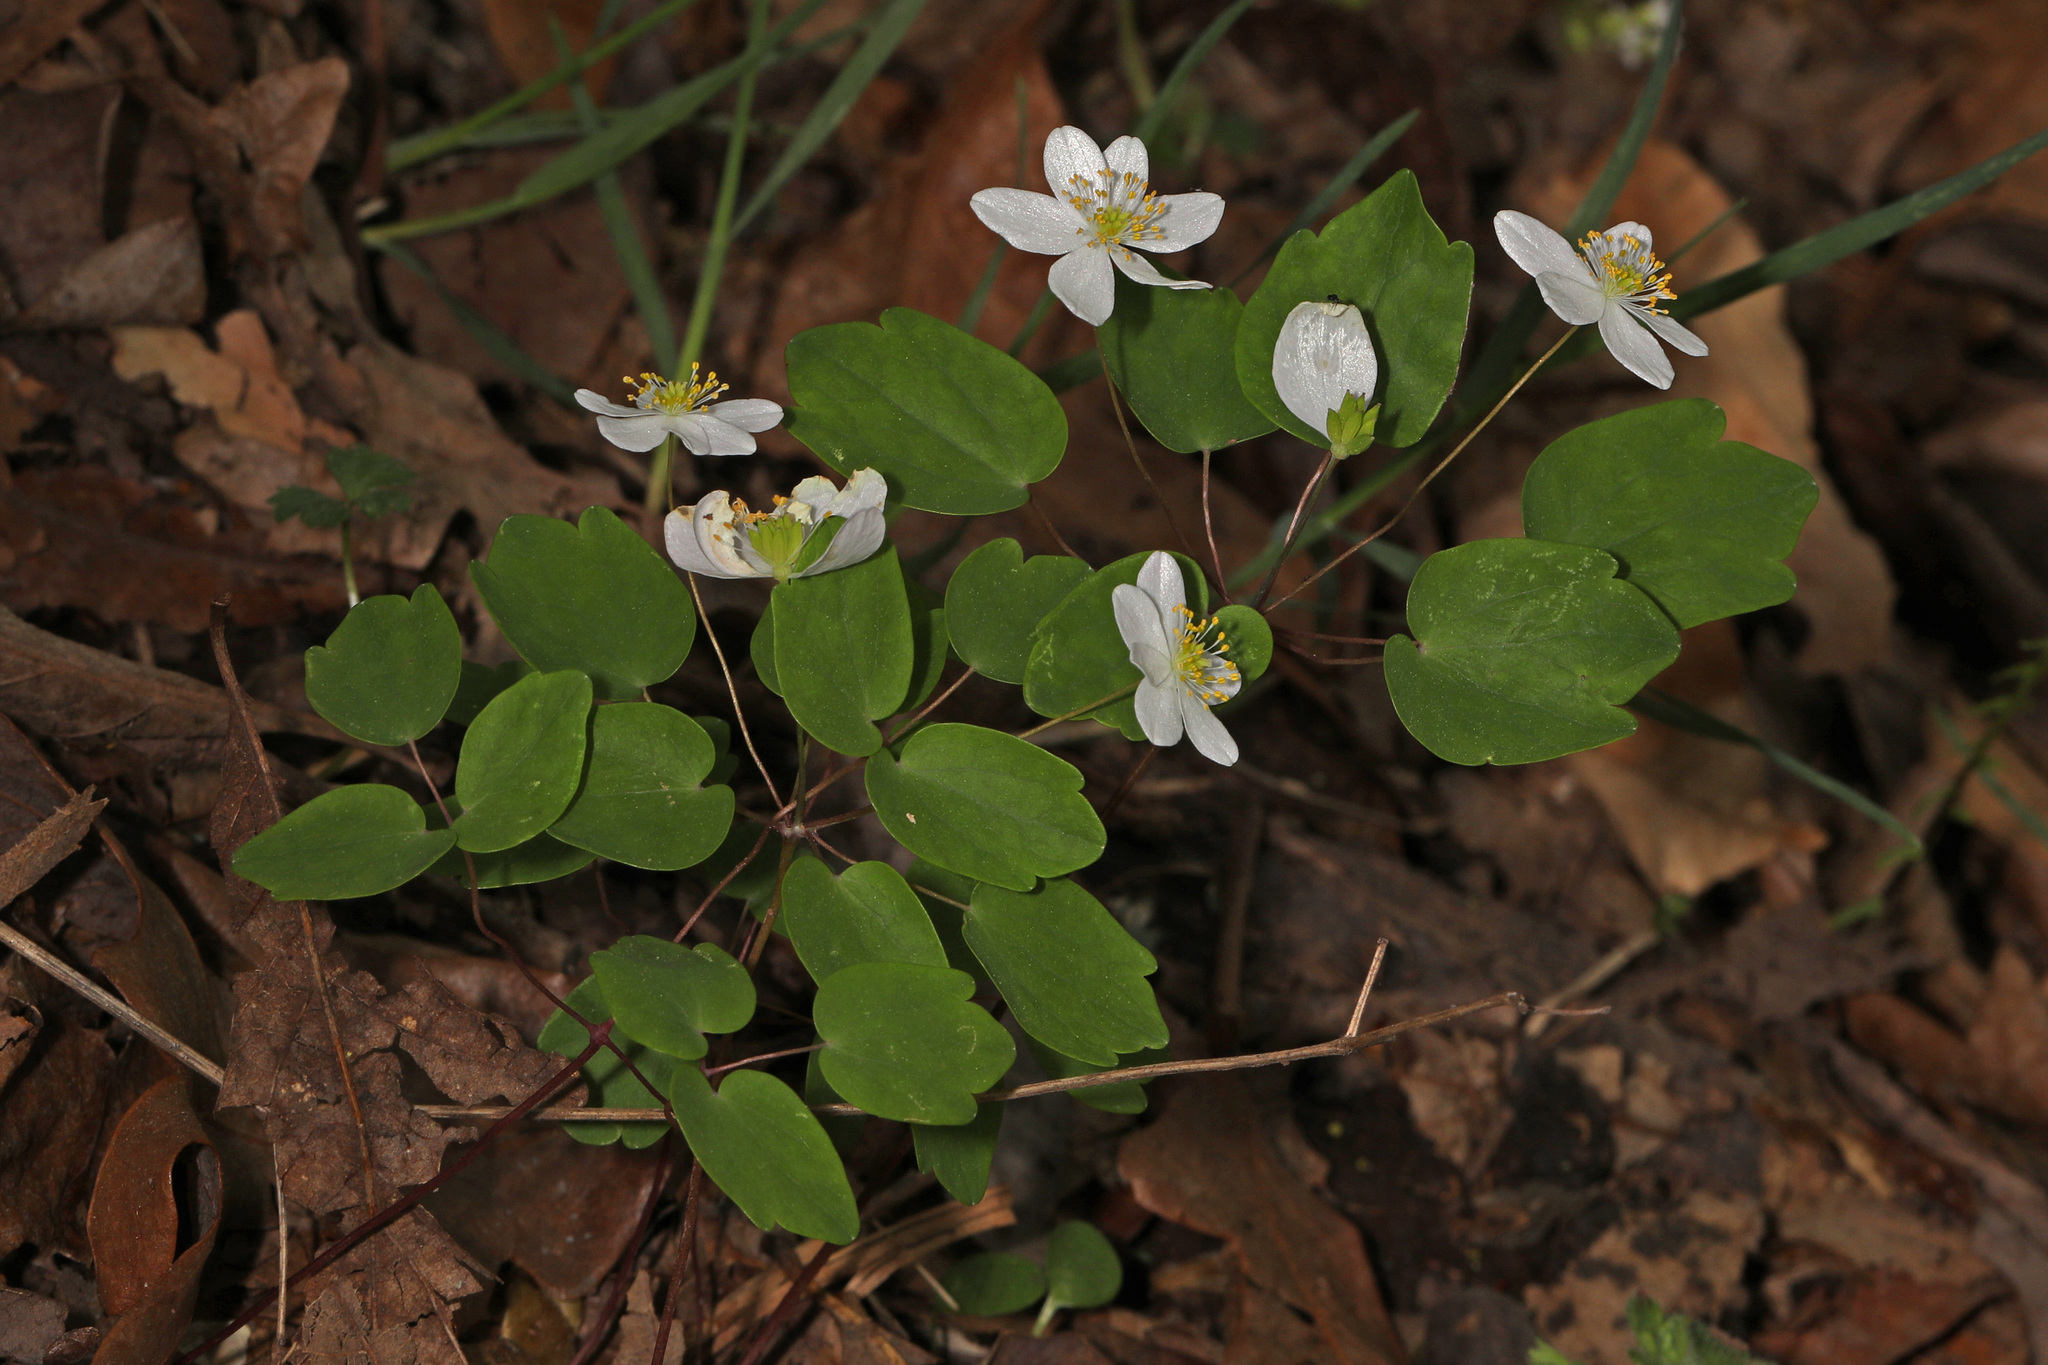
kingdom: Plantae
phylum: Tracheophyta
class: Magnoliopsida
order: Ranunculales
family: Ranunculaceae
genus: Thalictrum
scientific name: Thalictrum thalictroides
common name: Rue-anemone
